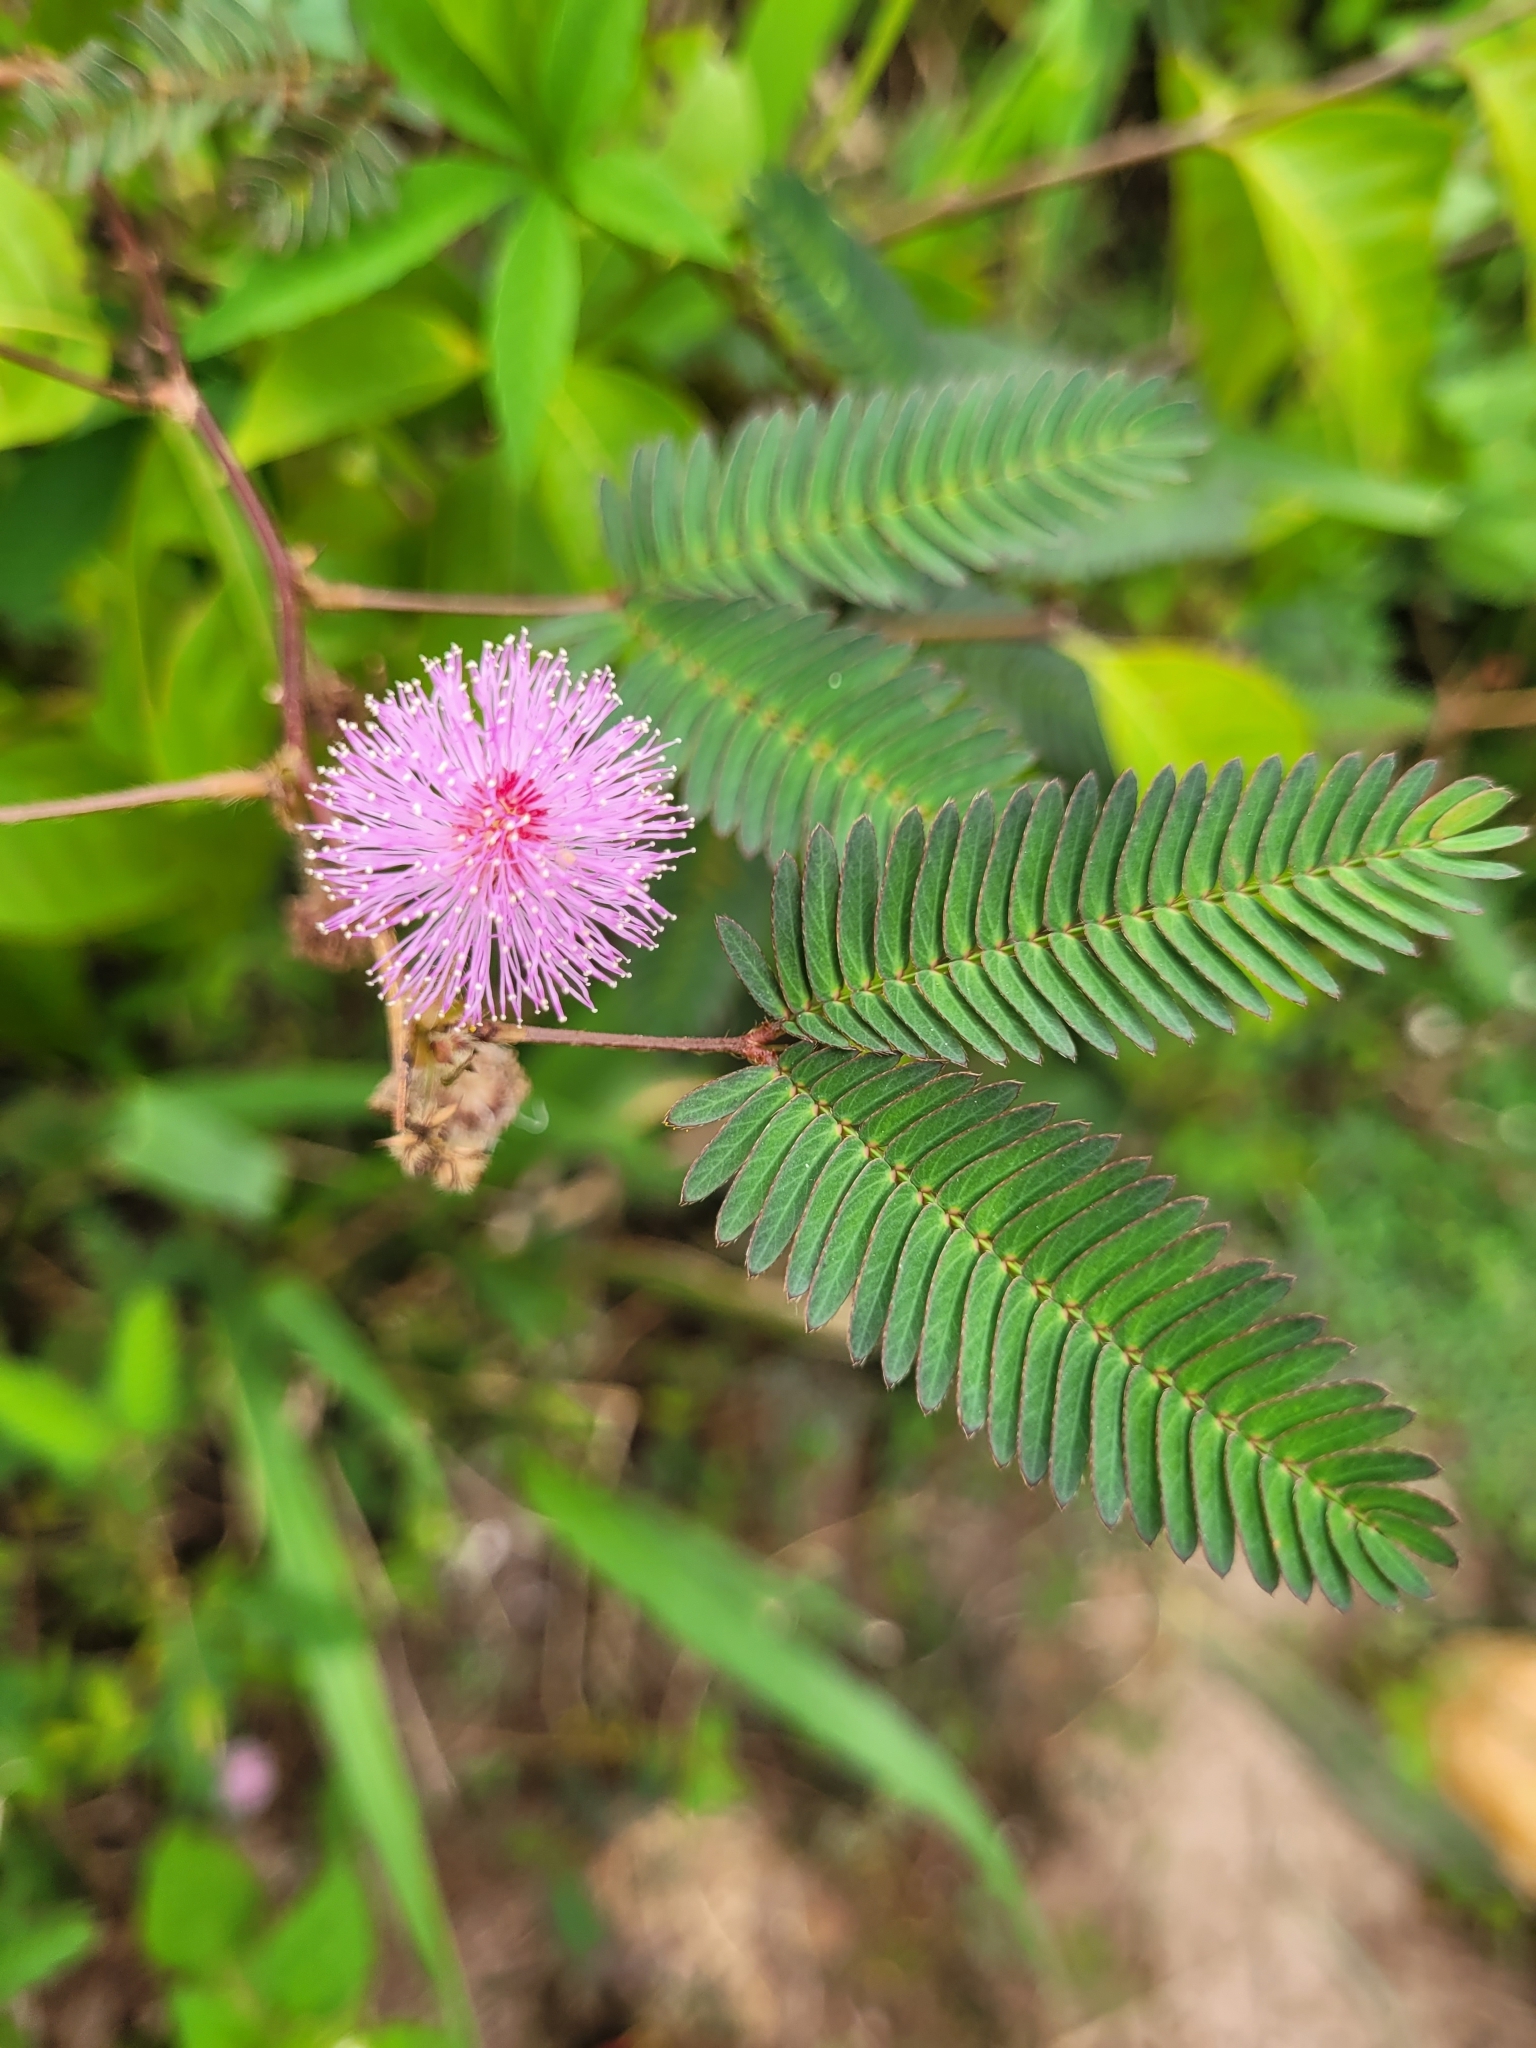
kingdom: Plantae
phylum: Tracheophyta
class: Magnoliopsida
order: Fabales
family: Fabaceae
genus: Mimosa
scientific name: Mimosa pudica
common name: Sensitive plant
